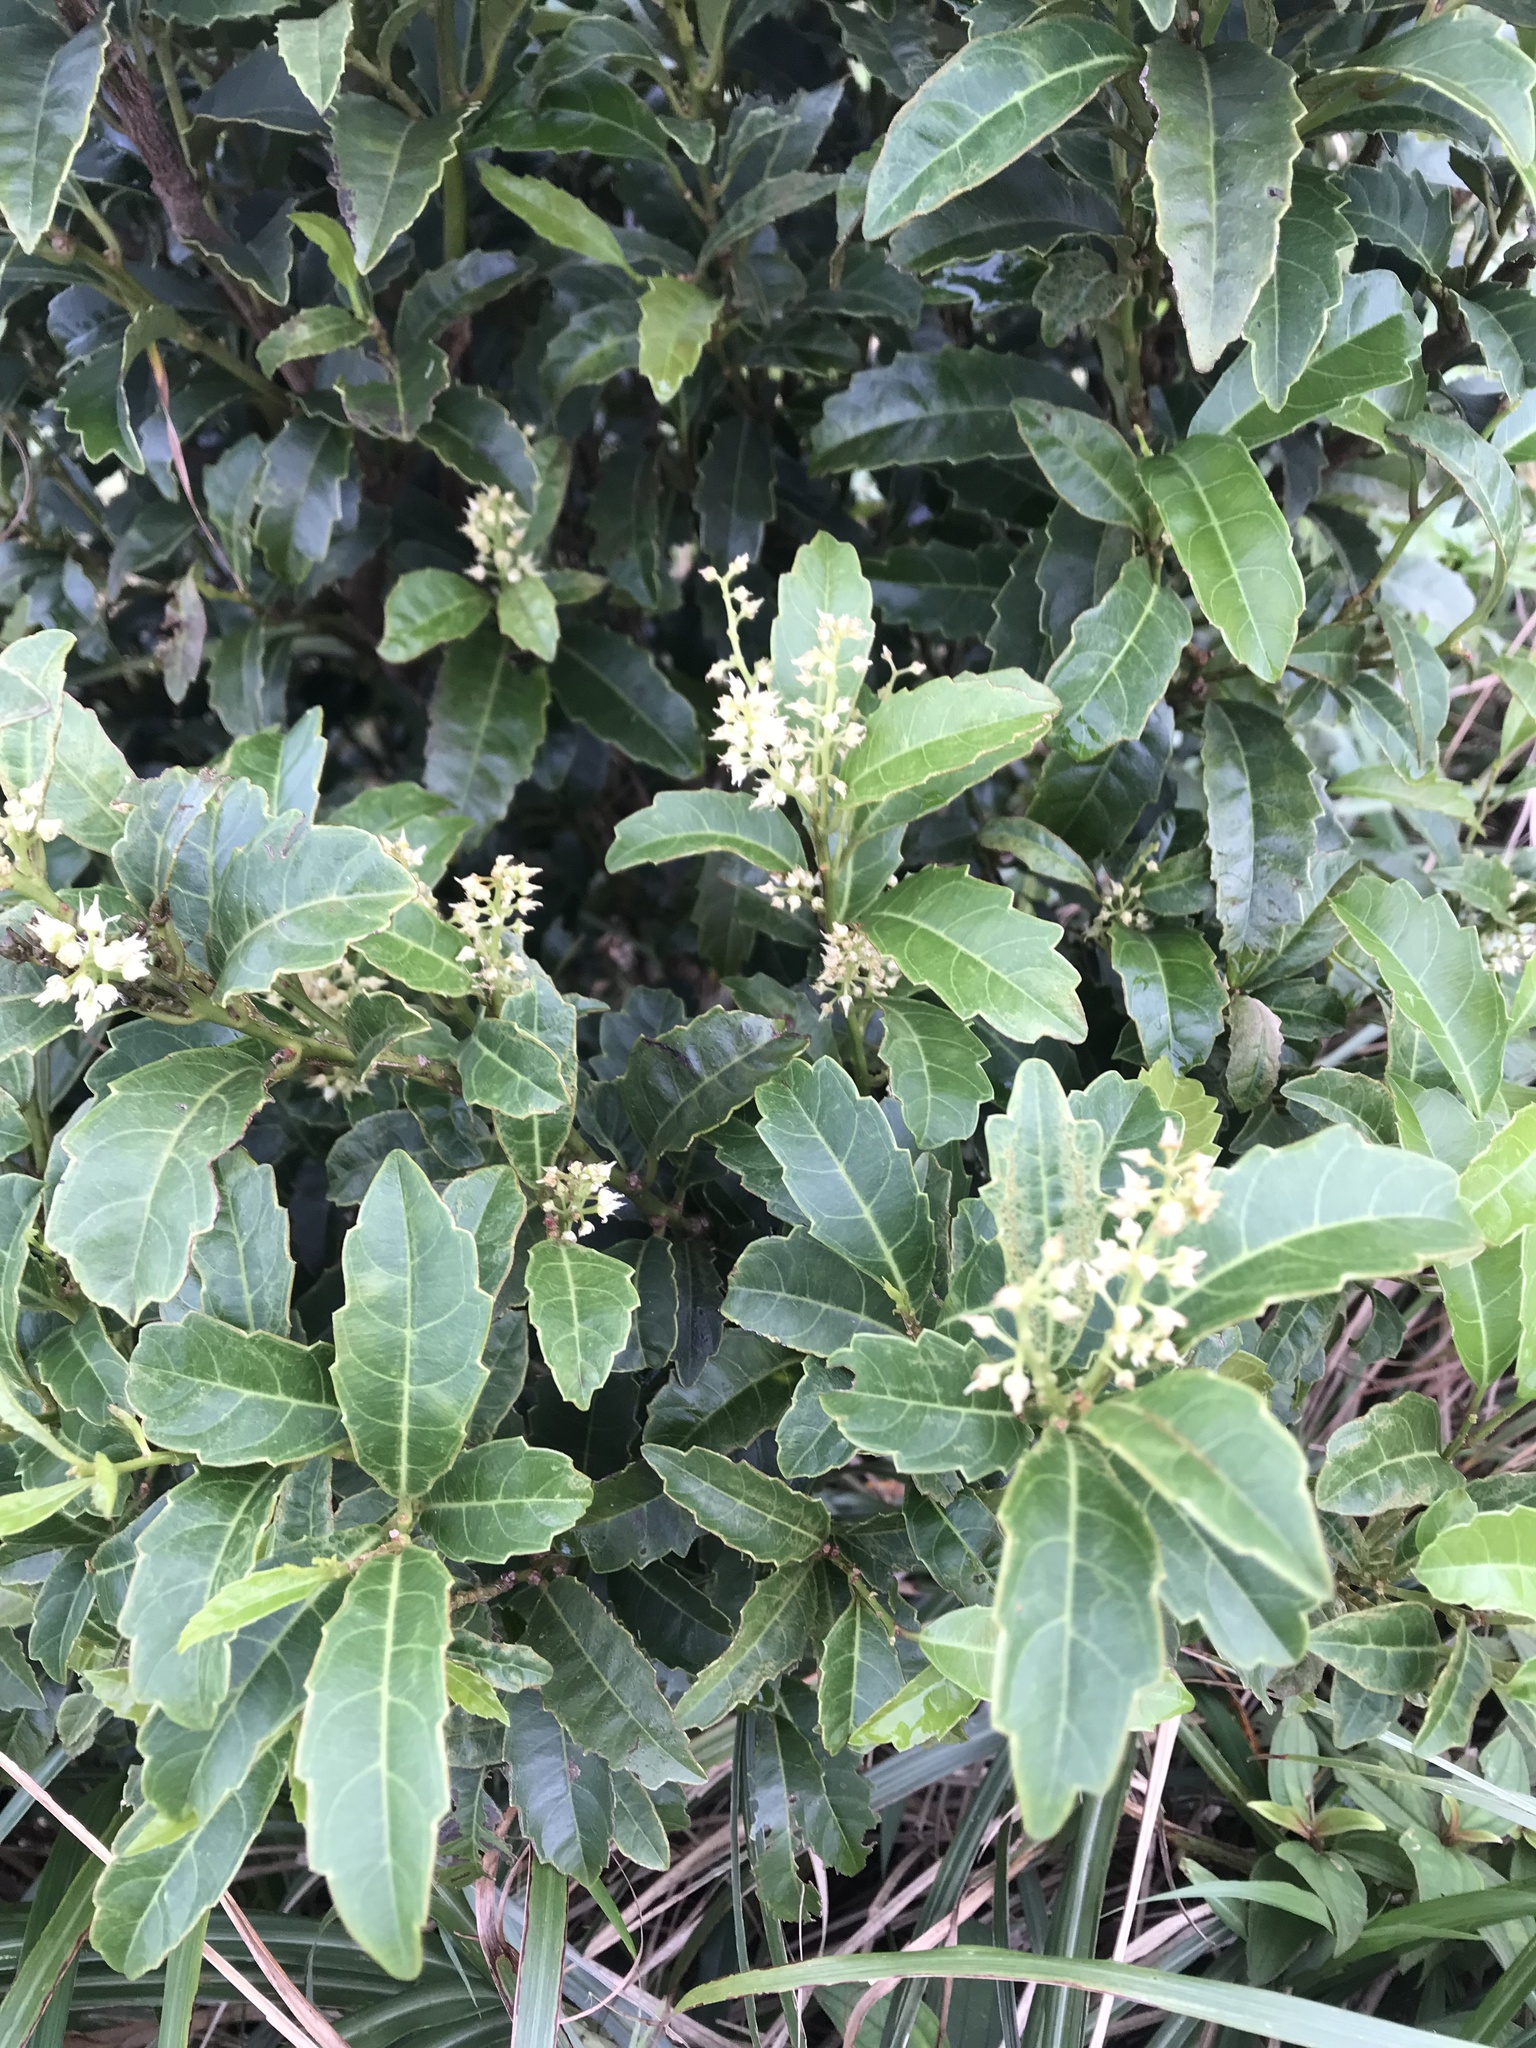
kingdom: Plantae
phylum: Tracheophyta
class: Magnoliopsida
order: Saxifragales
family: Iteaceae
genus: Itea
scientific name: Itea oldhamii
